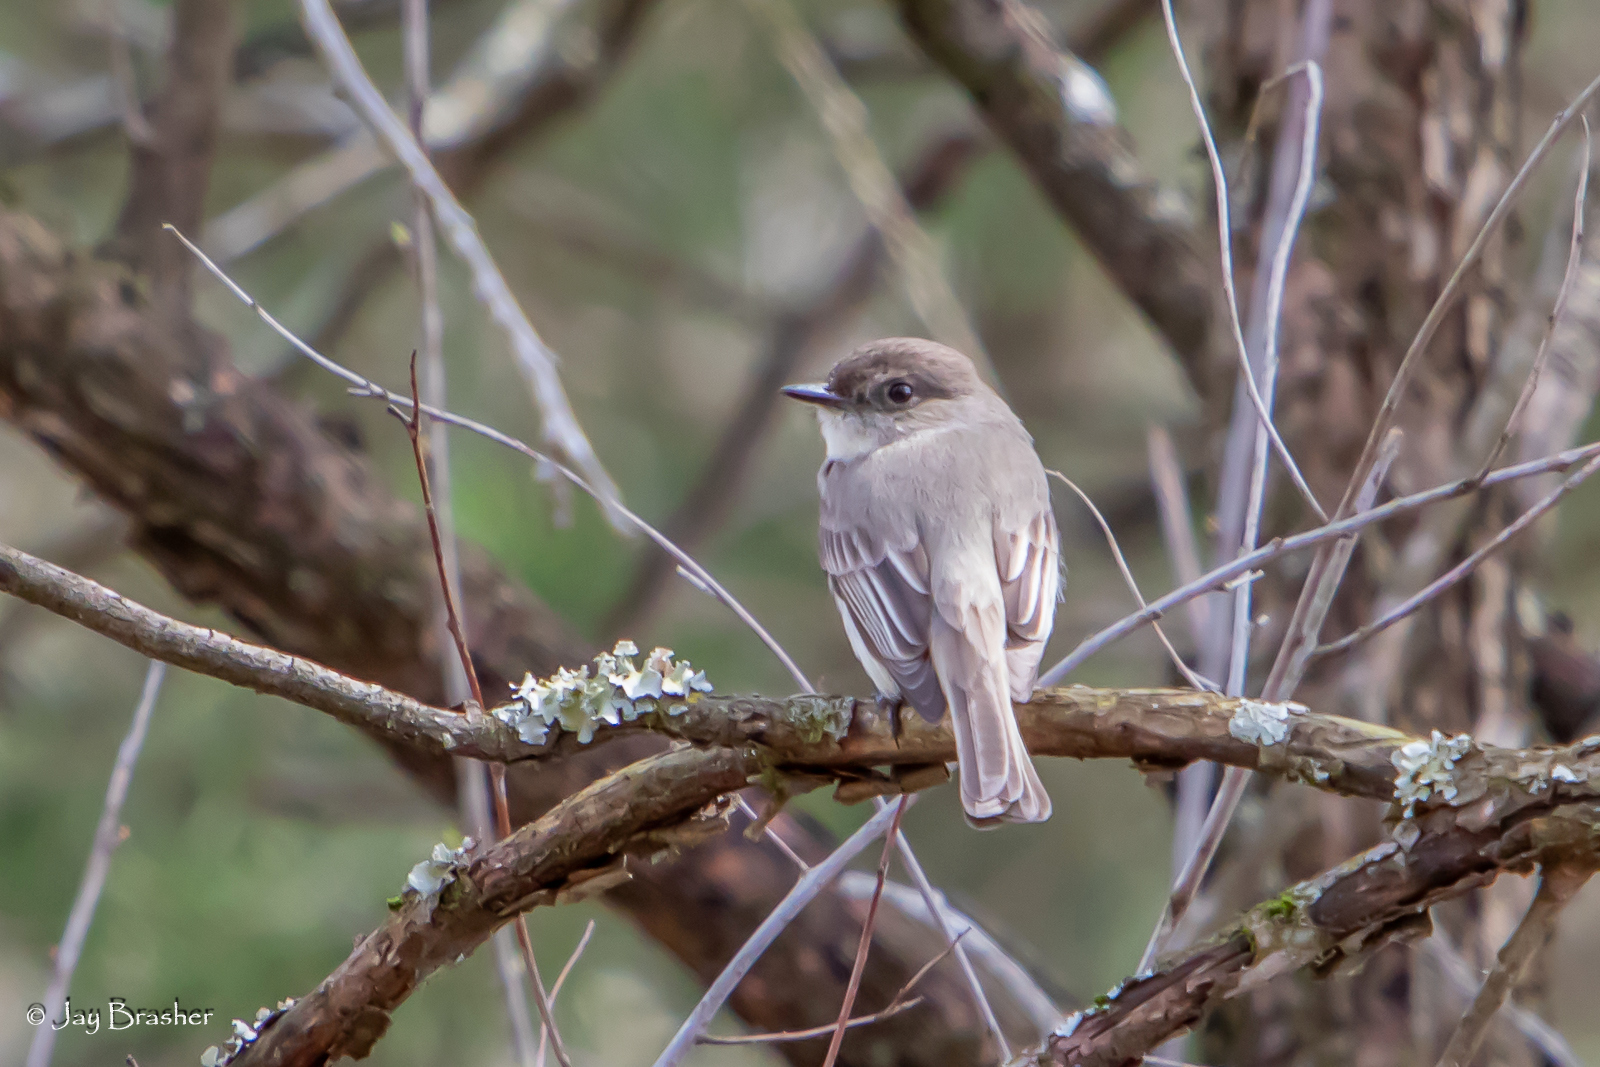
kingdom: Animalia
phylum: Chordata
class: Aves
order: Passeriformes
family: Tyrannidae
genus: Sayornis
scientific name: Sayornis phoebe
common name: Eastern phoebe
